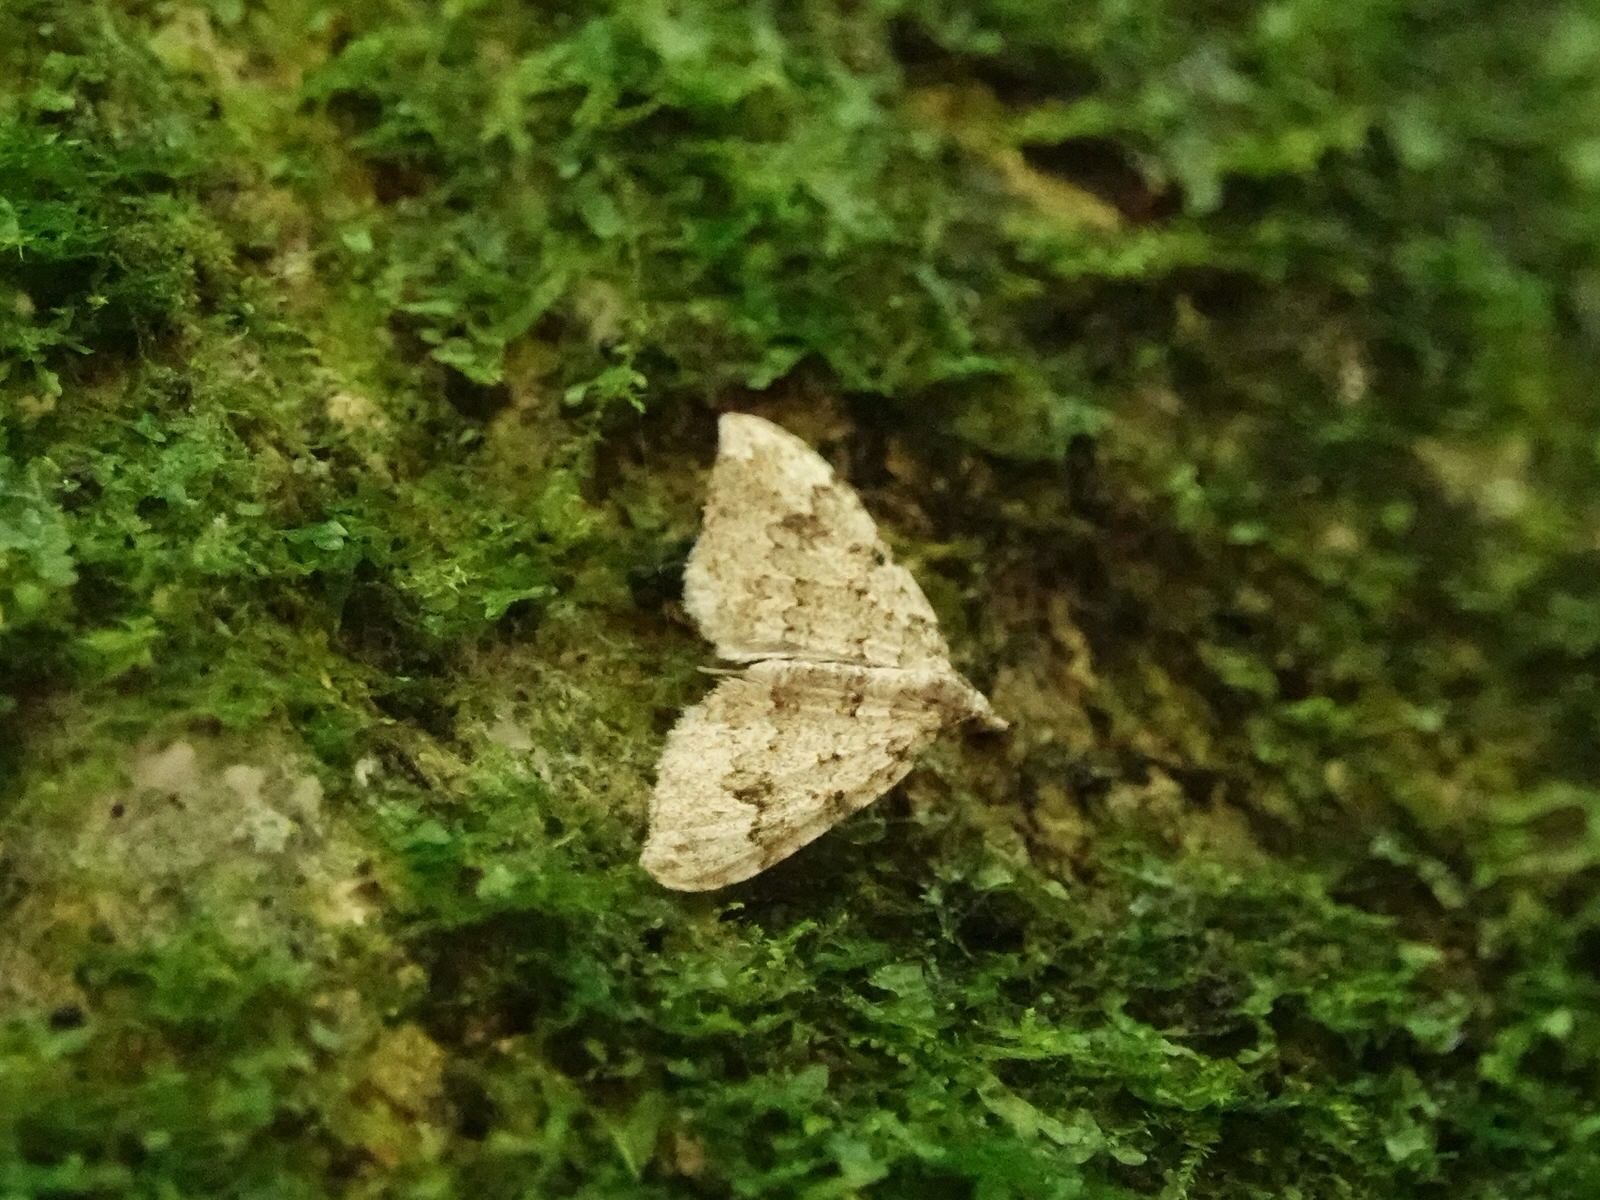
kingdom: Animalia
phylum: Arthropoda
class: Insecta
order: Lepidoptera
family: Geometridae
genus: Helastia
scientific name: Helastia cinerearia
